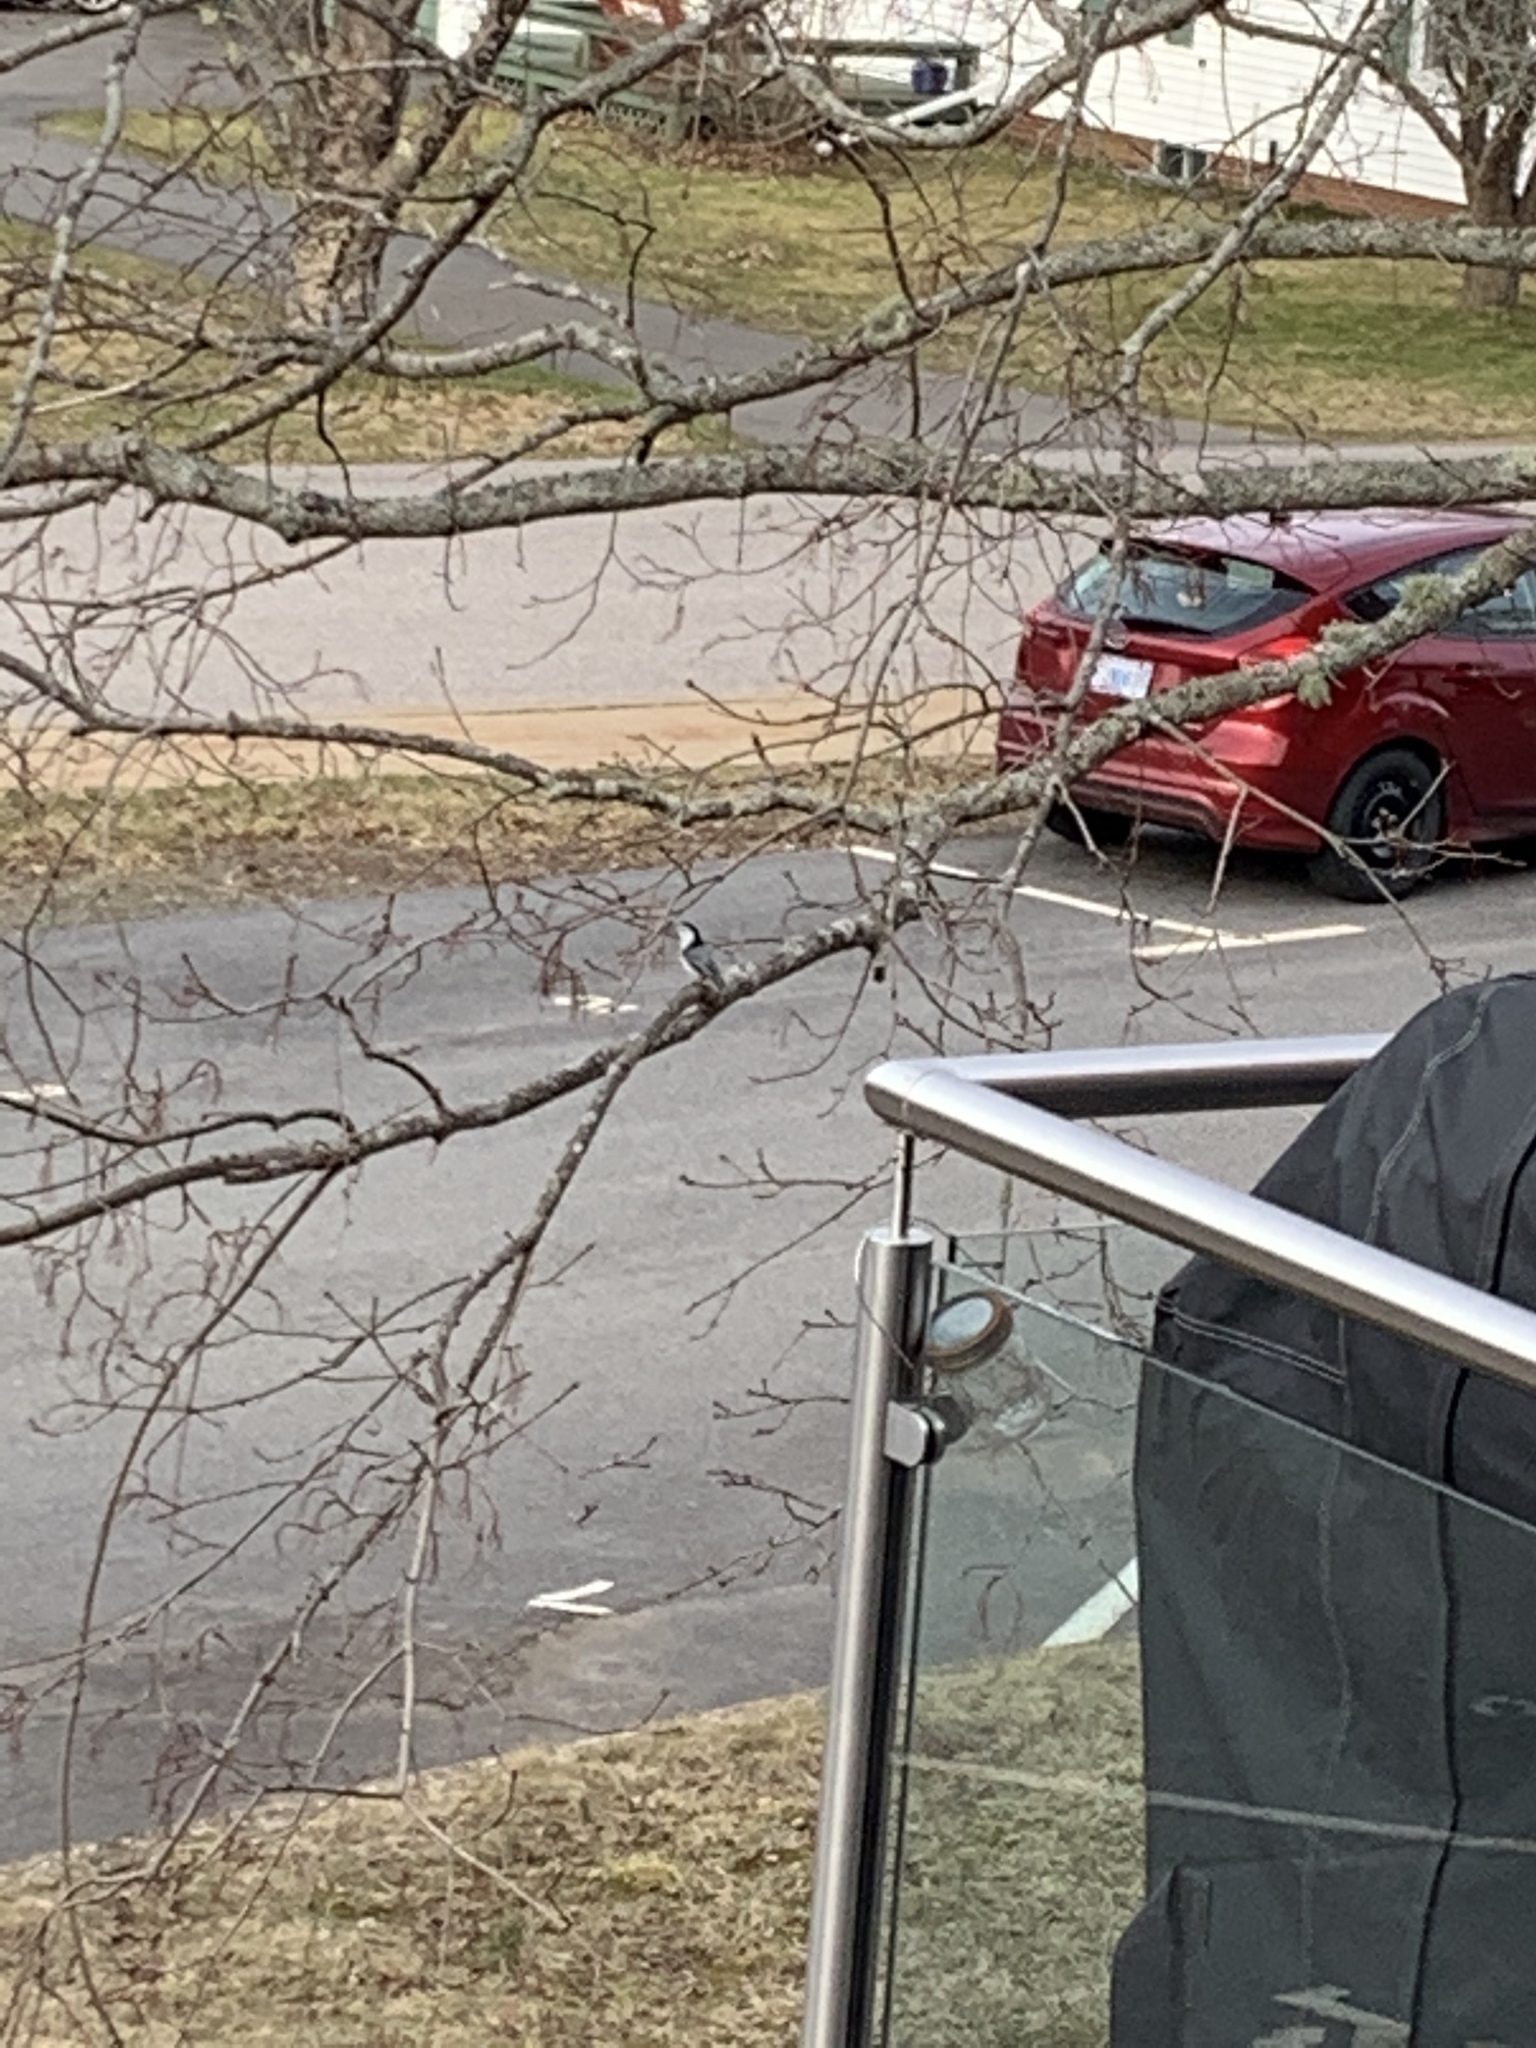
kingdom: Animalia
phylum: Chordata
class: Aves
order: Passeriformes
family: Sittidae
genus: Sitta
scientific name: Sitta carolinensis
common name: White-breasted nuthatch
